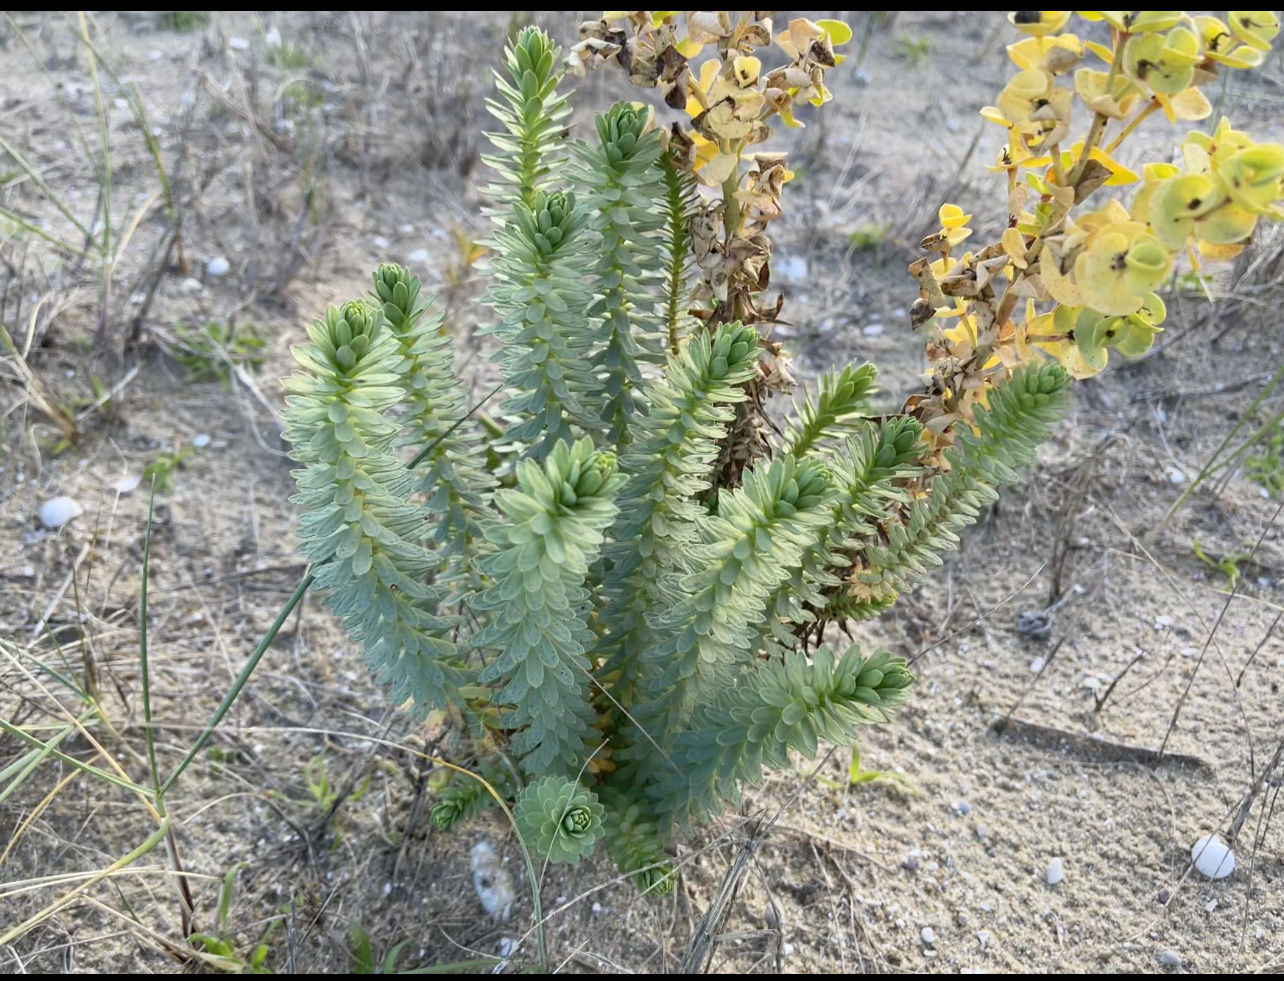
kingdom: Plantae
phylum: Tracheophyta
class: Magnoliopsida
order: Malpighiales
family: Euphorbiaceae
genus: Euphorbia
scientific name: Euphorbia paralias
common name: Sea spurge
